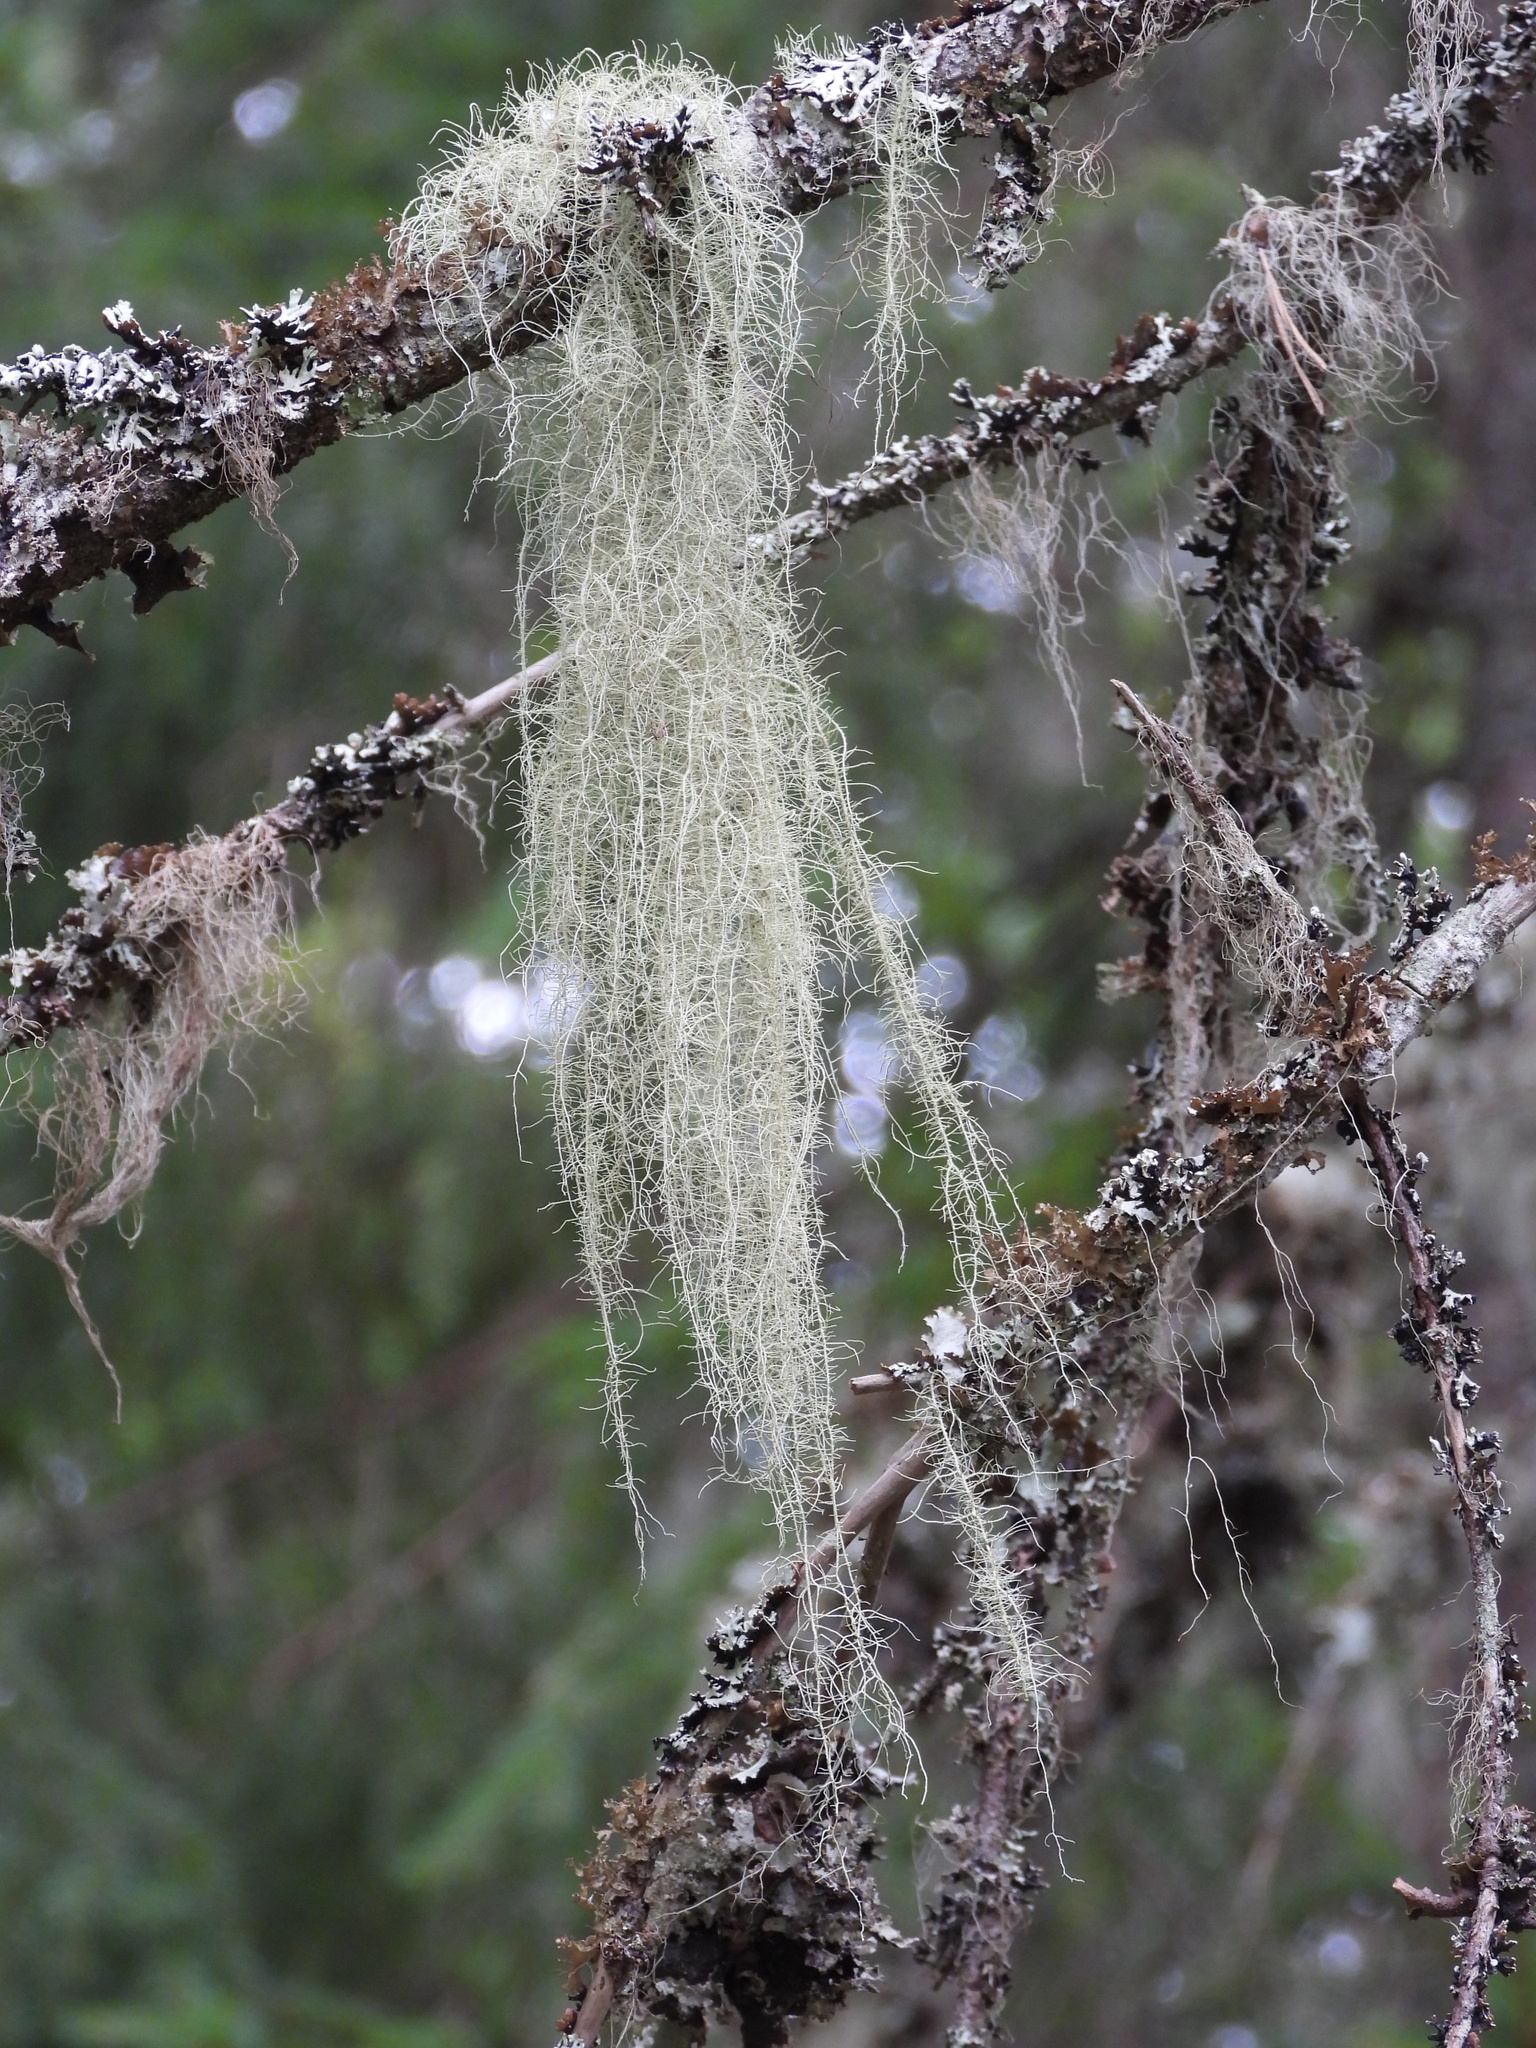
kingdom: Fungi
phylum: Ascomycota
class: Lecanoromycetes
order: Lecanorales
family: Parmeliaceae
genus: Usnea
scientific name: Usnea dasopoga
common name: Fishbone beard lichen
